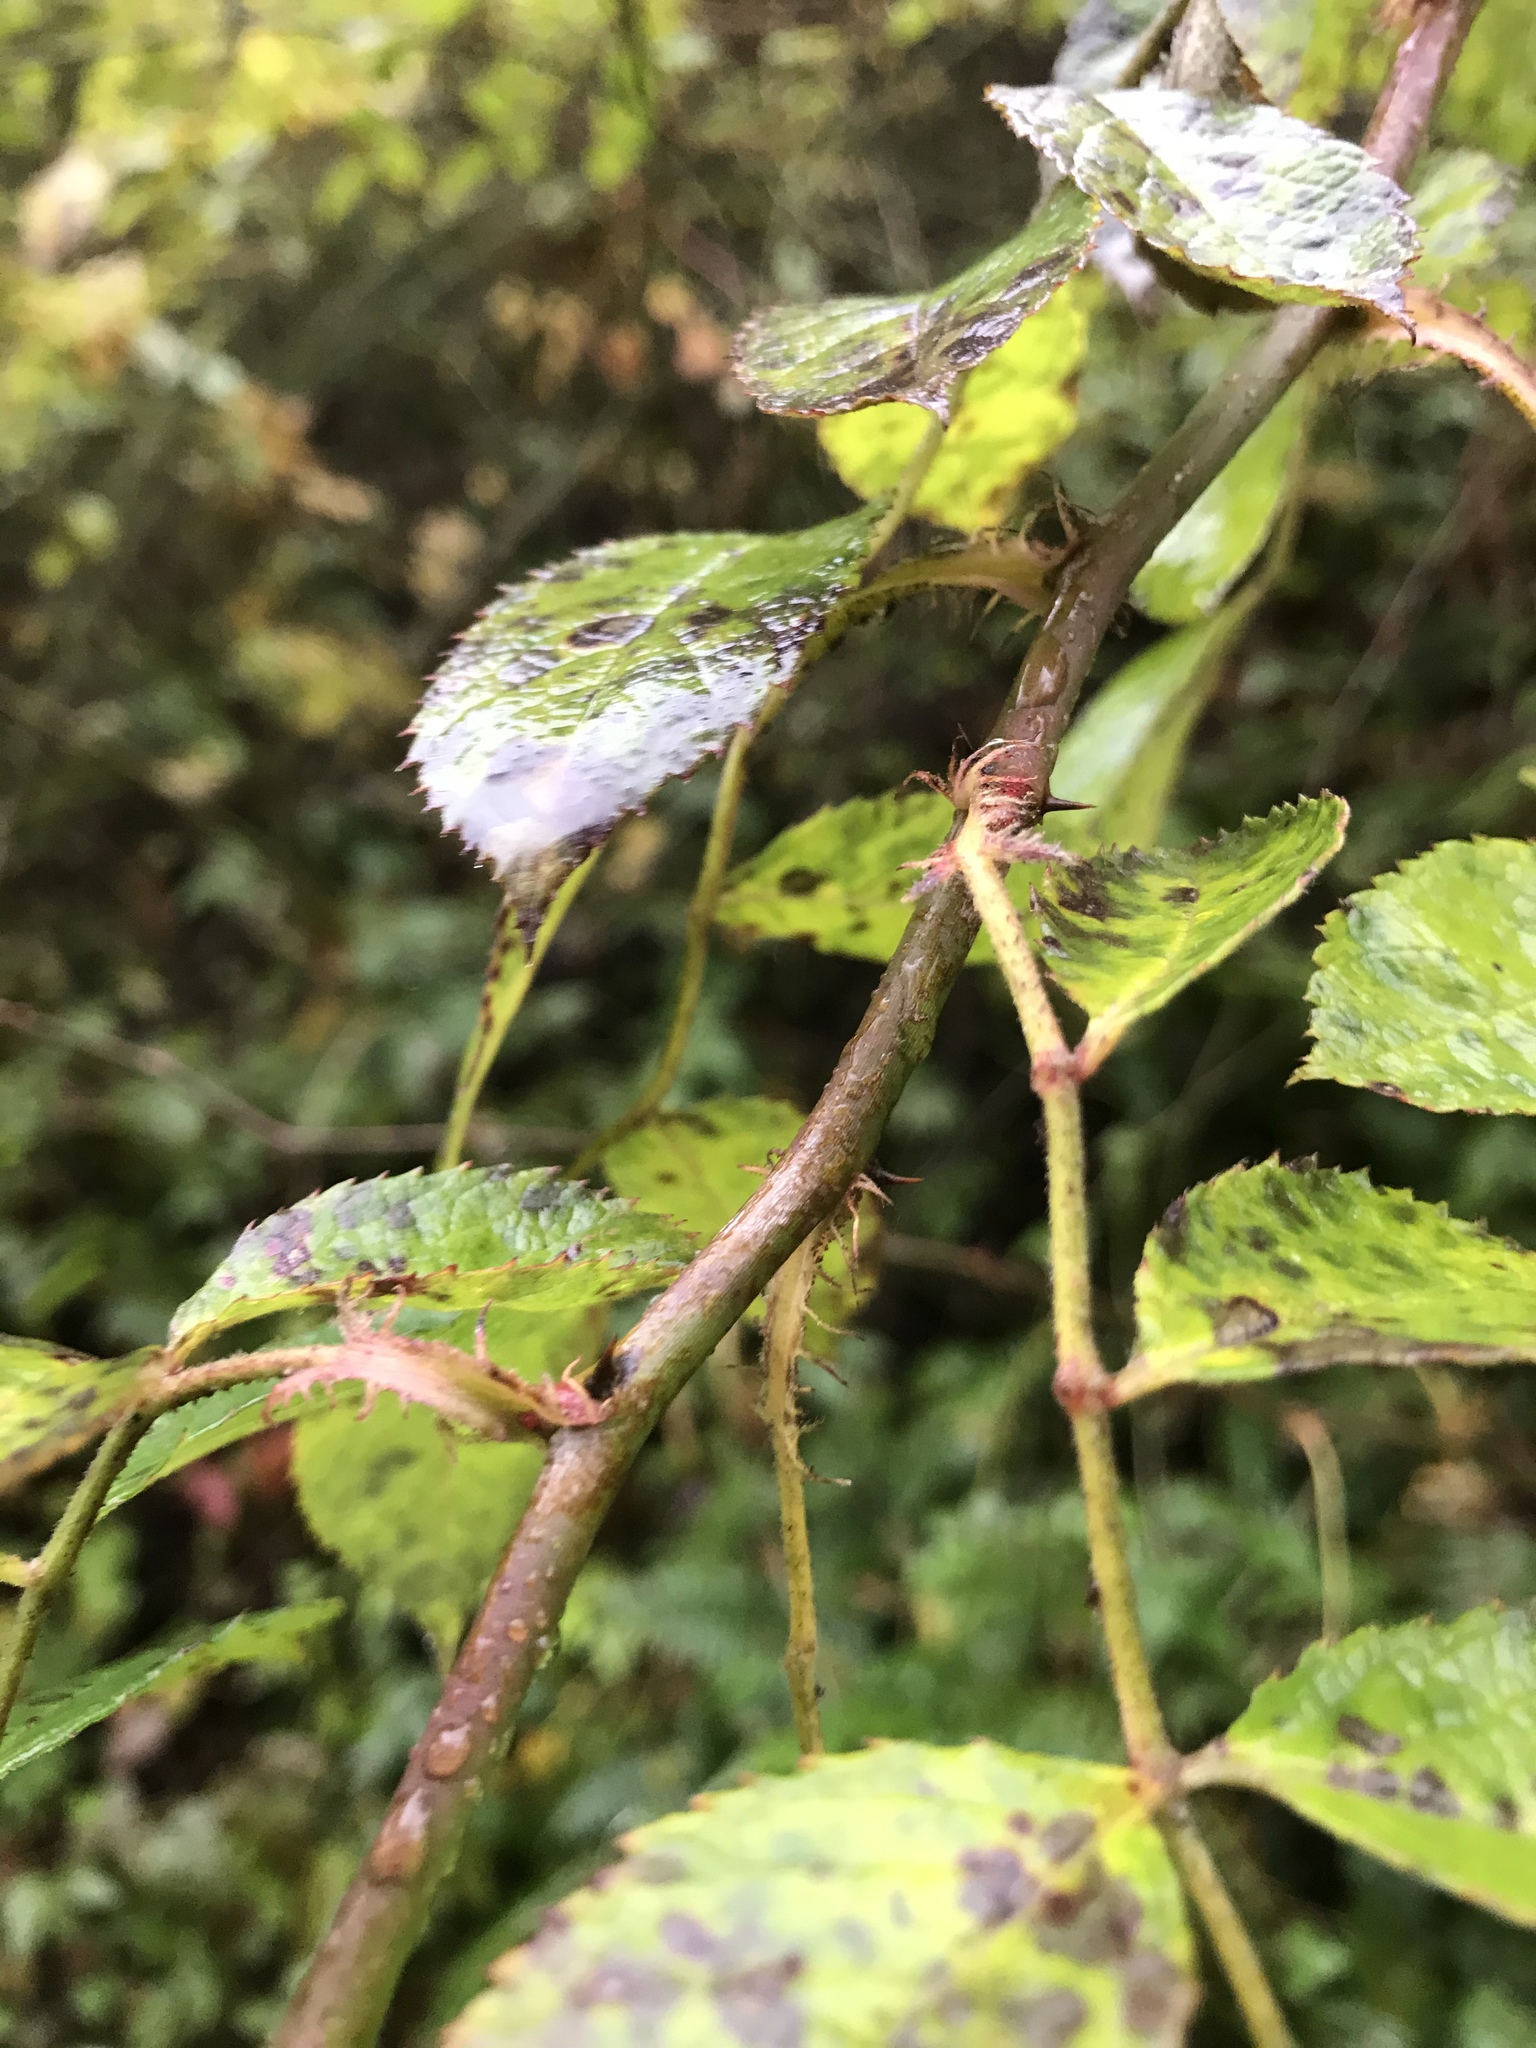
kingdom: Plantae
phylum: Tracheophyta
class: Magnoliopsida
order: Rosales
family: Rosaceae
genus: Rosa
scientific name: Rosa multiflora
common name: Multiflora rose
